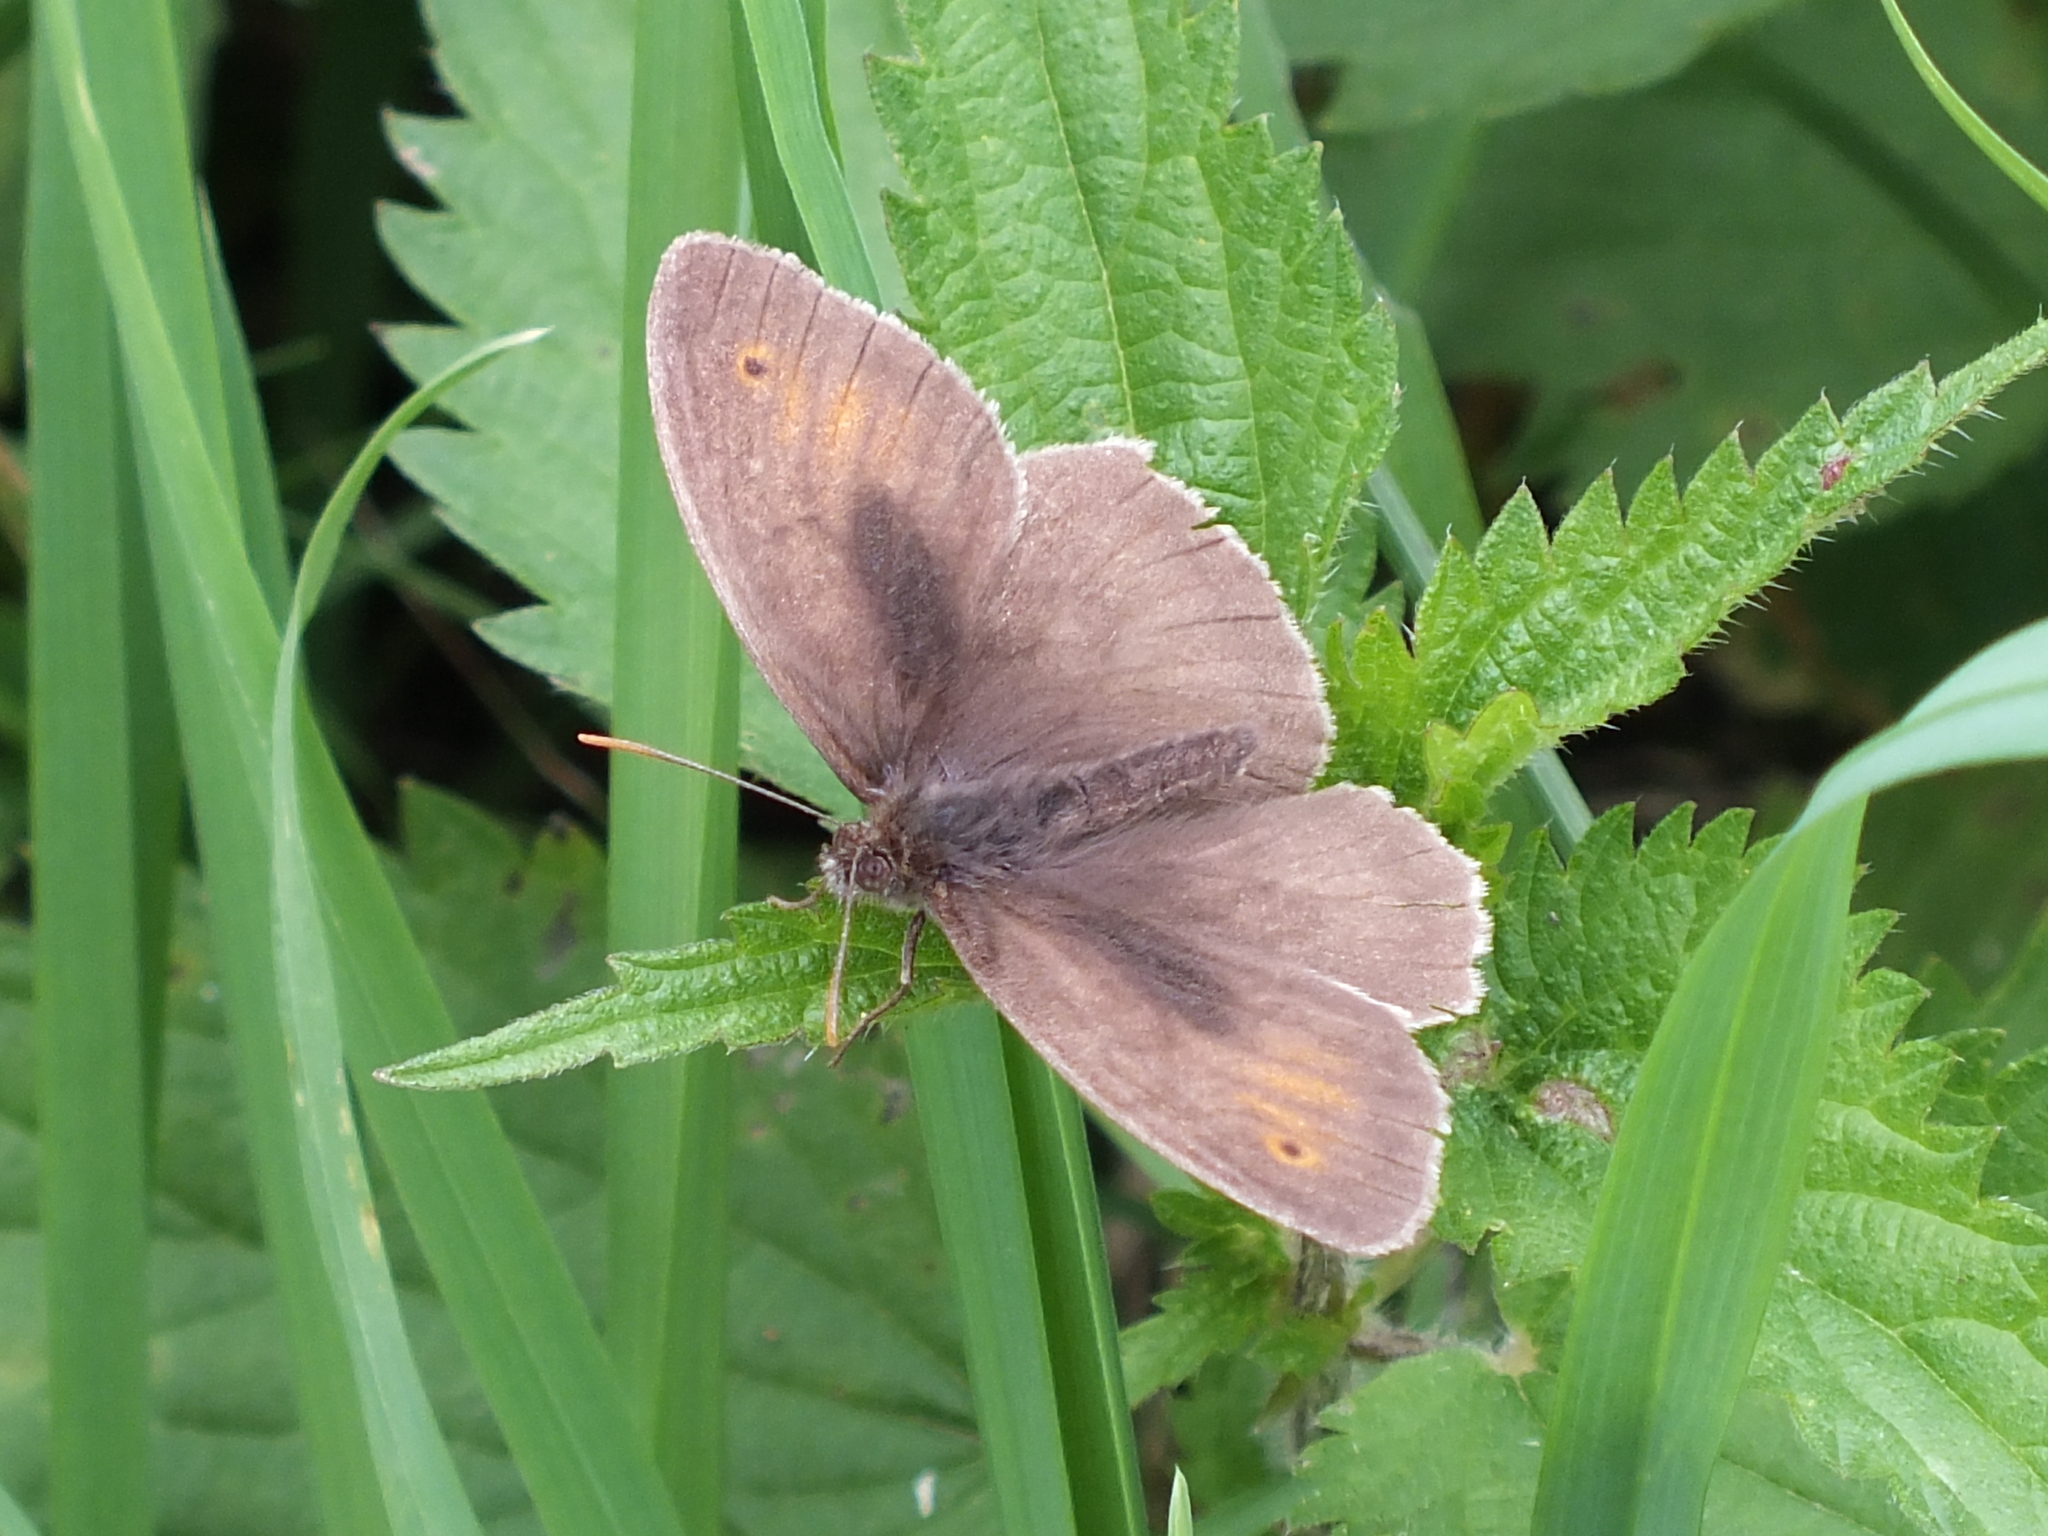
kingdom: Animalia
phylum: Arthropoda
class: Insecta
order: Lepidoptera
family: Nymphalidae
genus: Maniola
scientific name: Maniola jurtina
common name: Meadow brown
